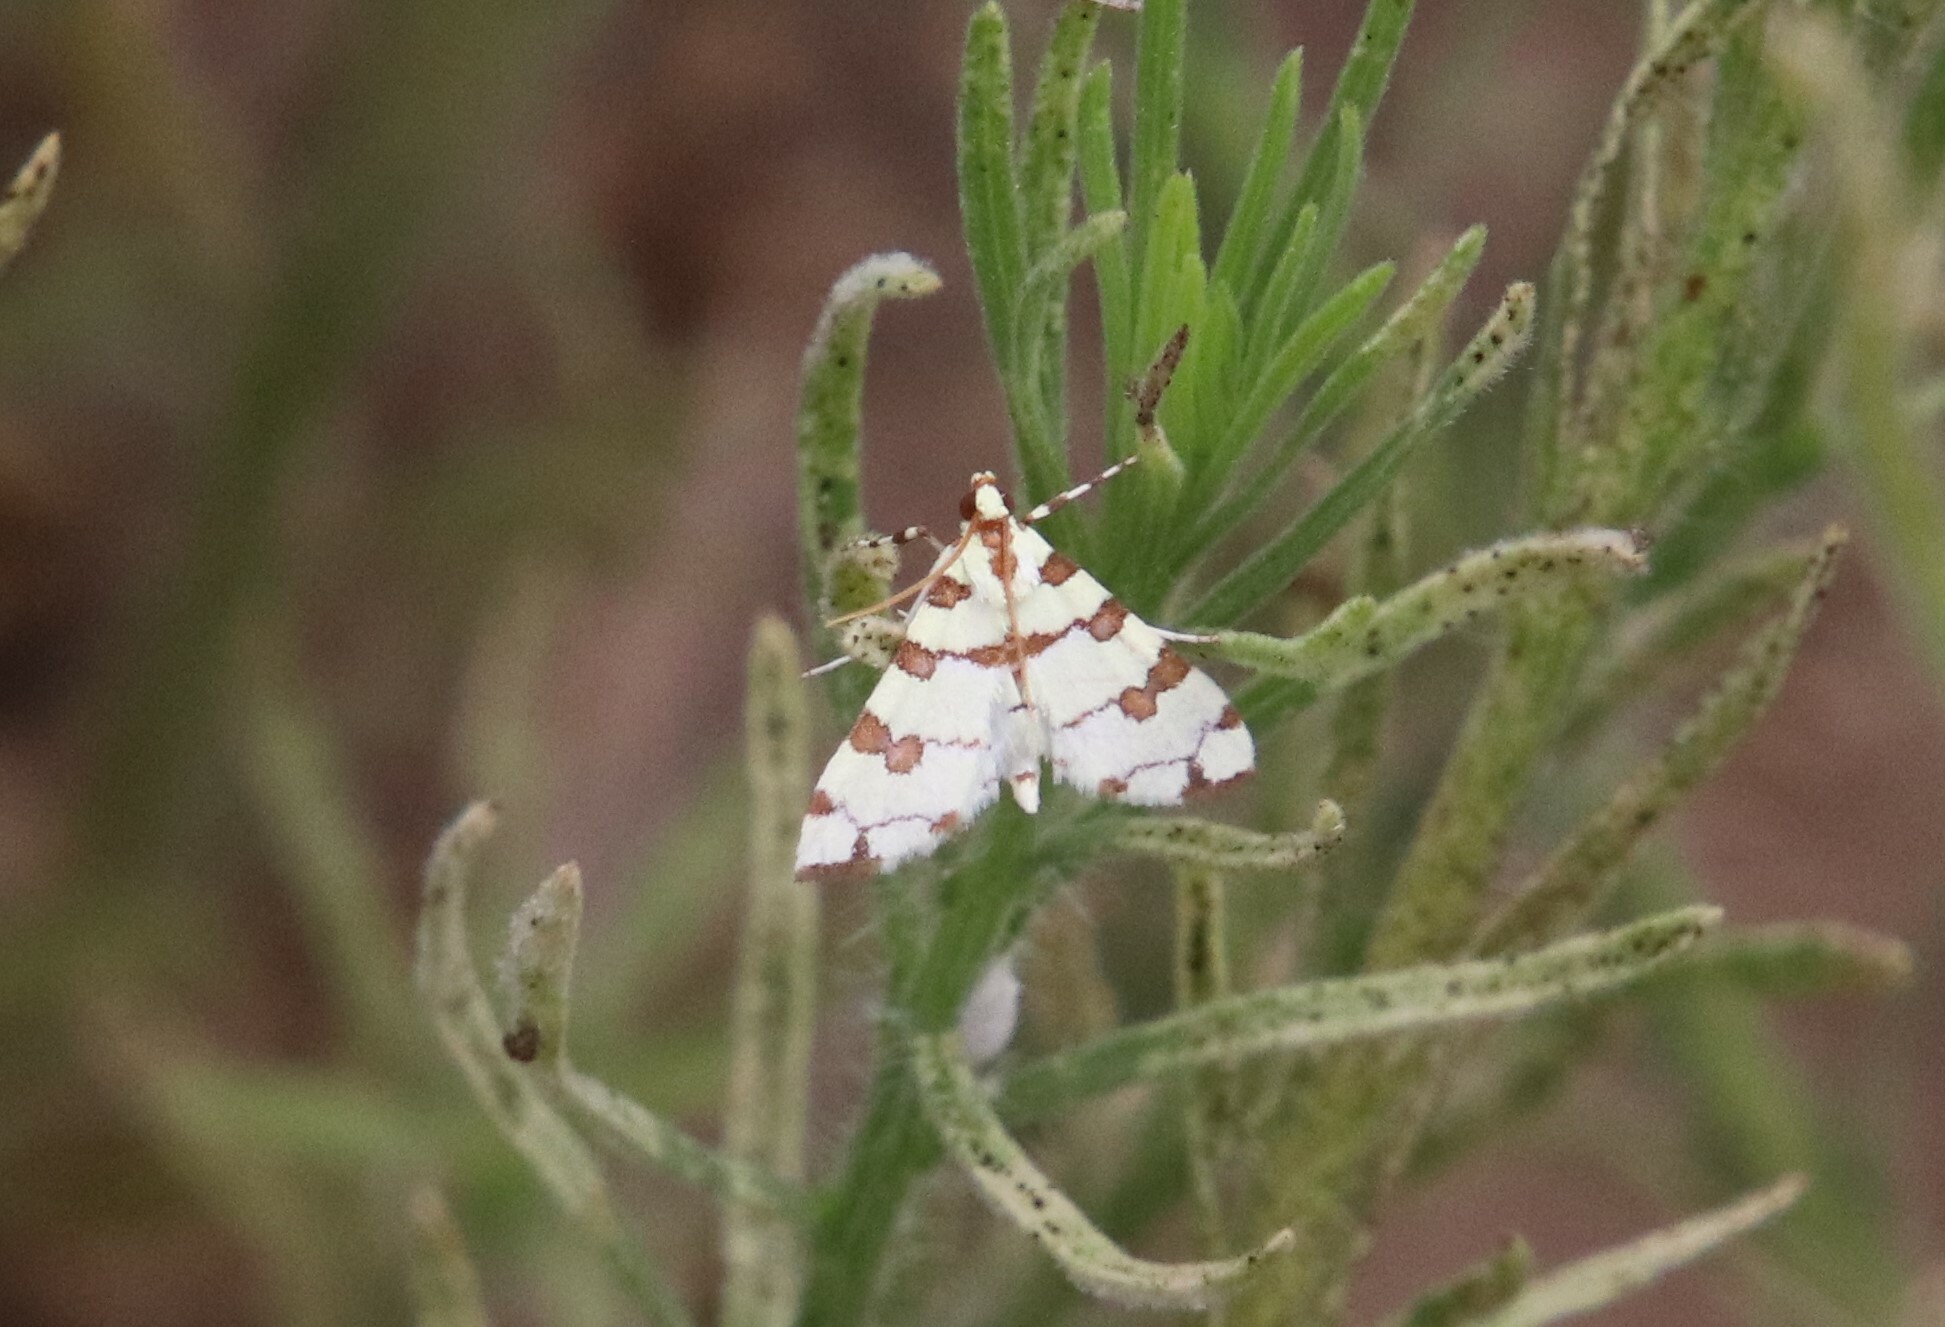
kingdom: Animalia
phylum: Arthropoda
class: Insecta
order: Lepidoptera
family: Crambidae
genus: Conchylodes
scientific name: Conchylodes
